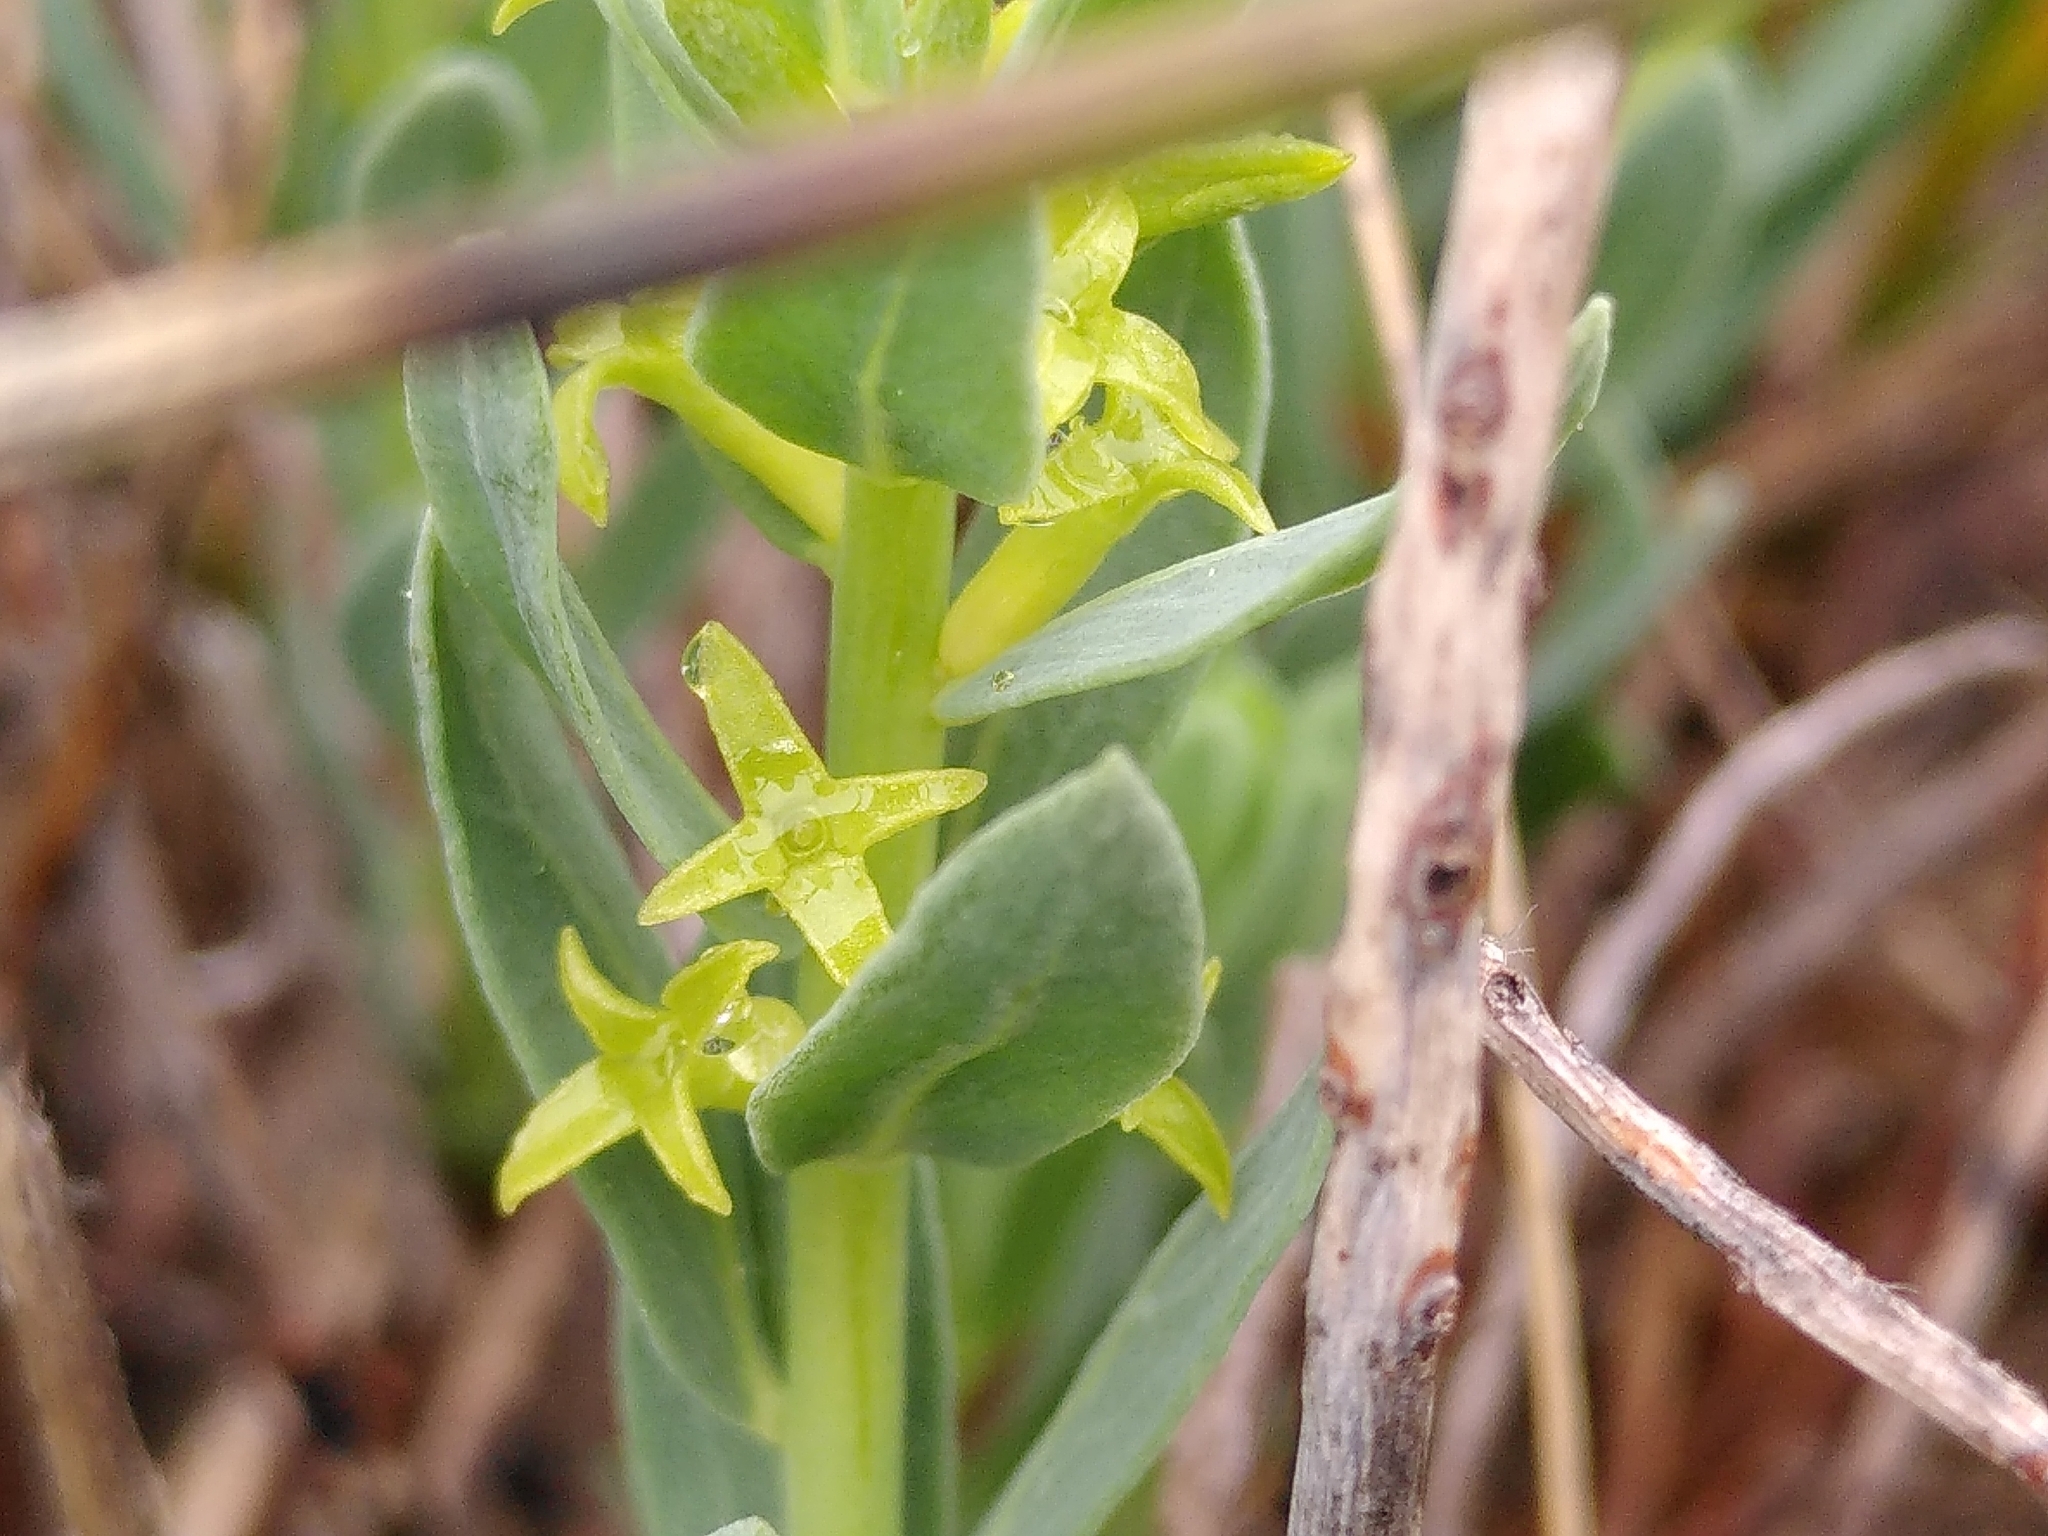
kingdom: Plantae
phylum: Tracheophyta
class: Magnoliopsida
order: Malvales
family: Thymelaeaceae
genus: Thymelaea
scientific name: Thymelaea sanamunda
